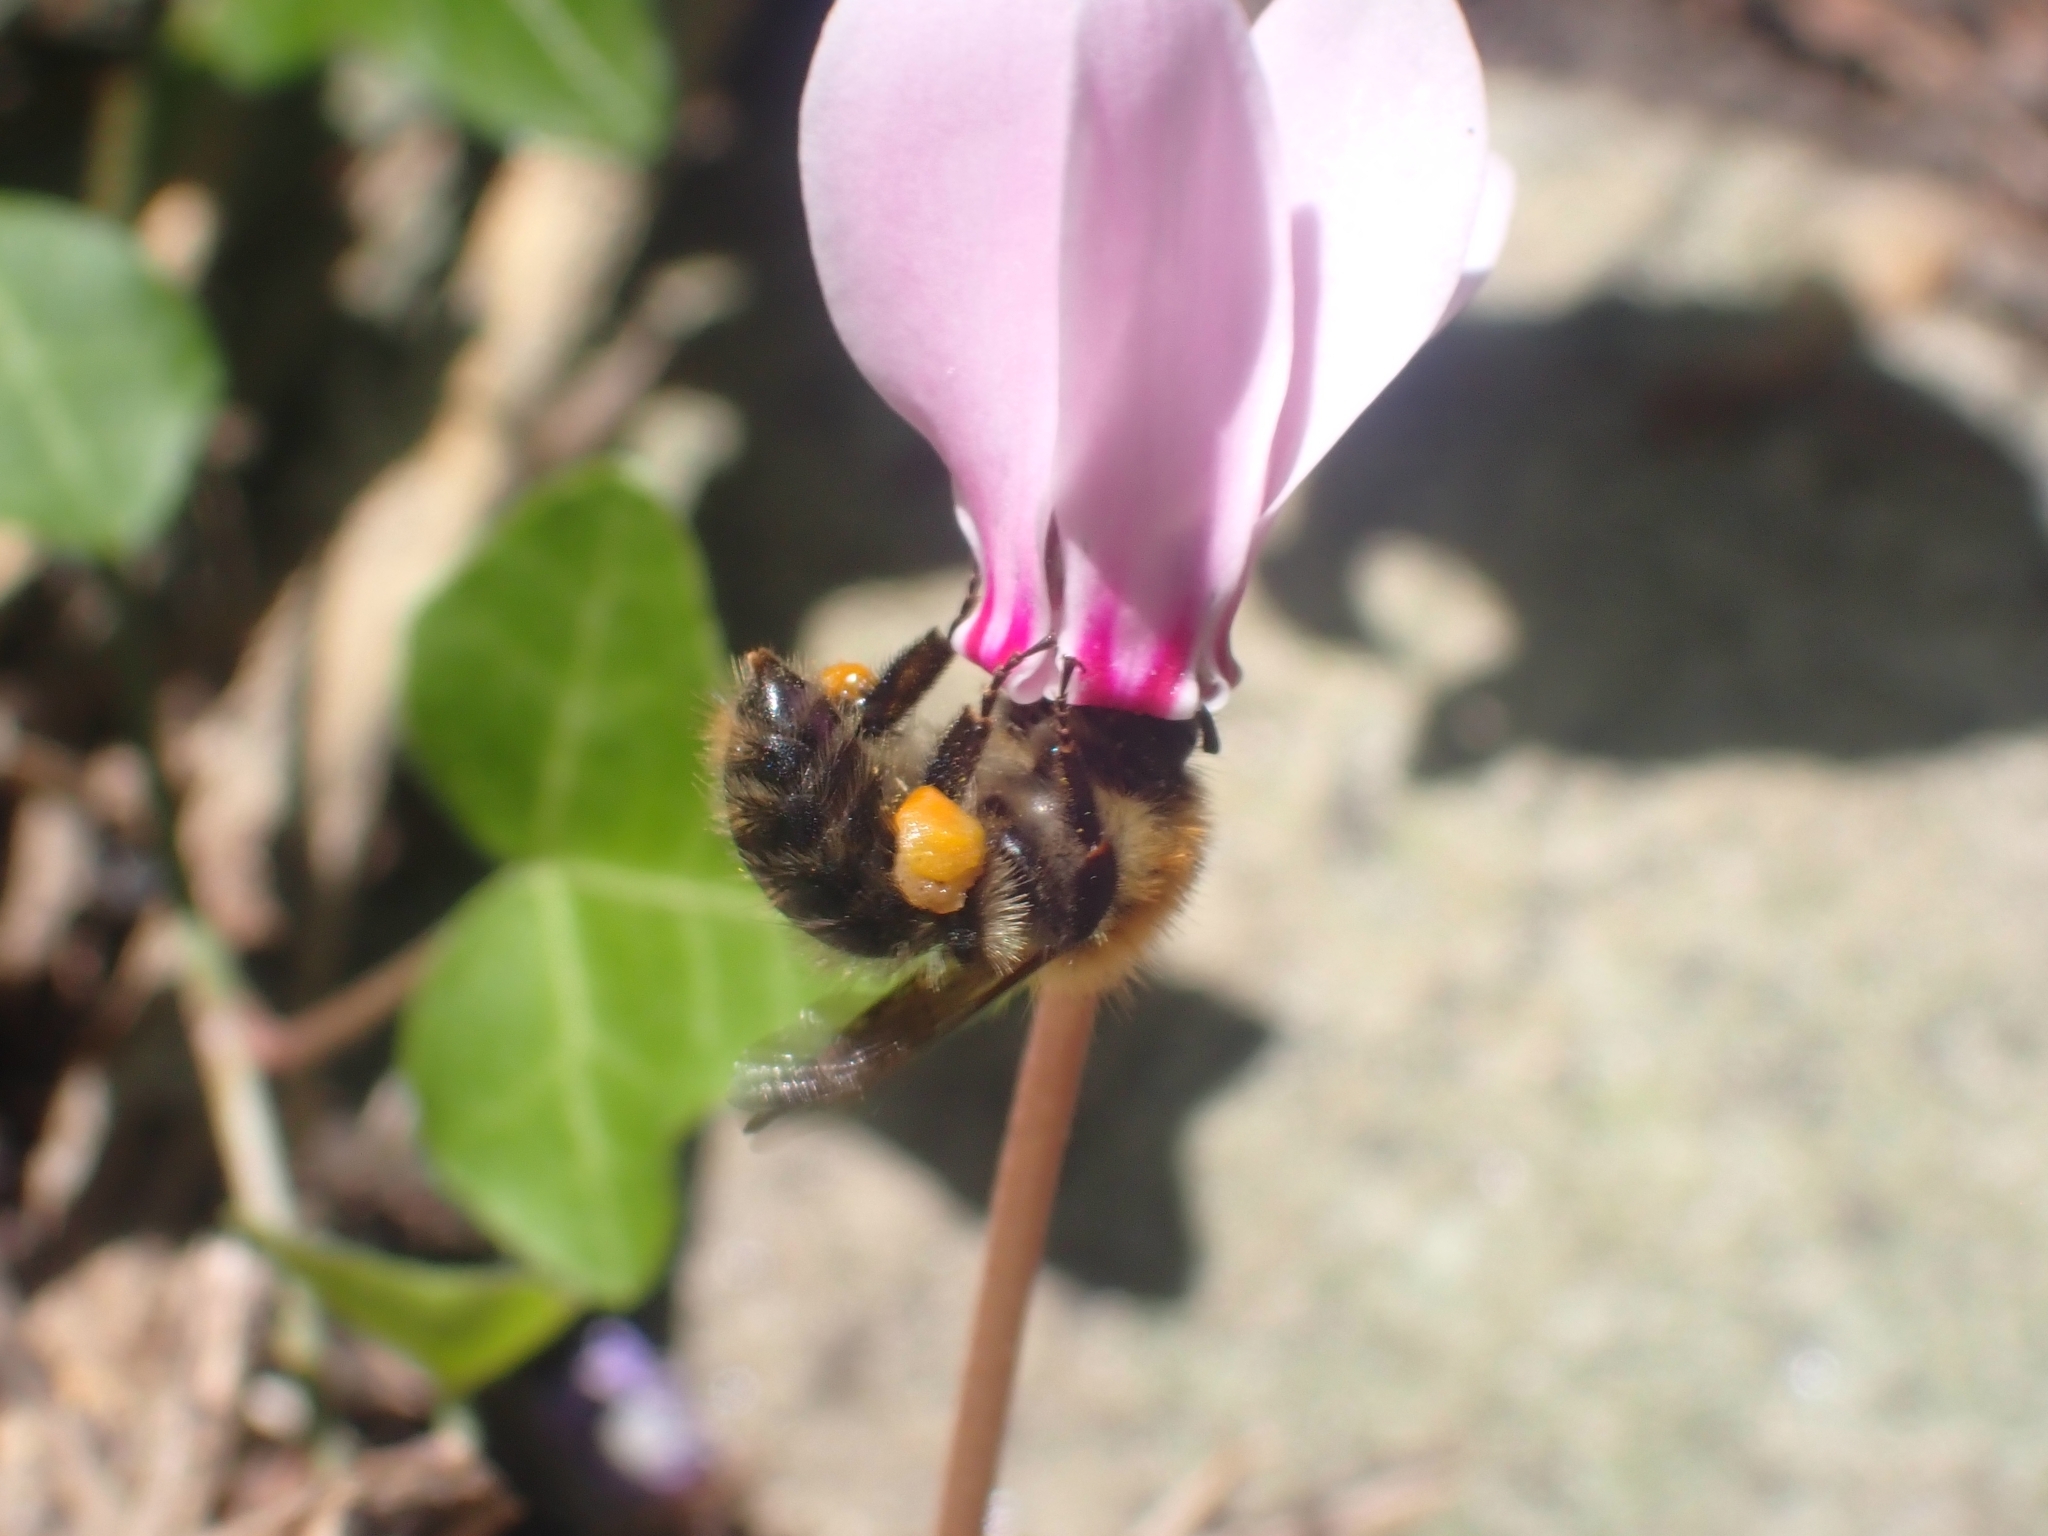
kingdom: Animalia
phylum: Arthropoda
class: Insecta
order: Hymenoptera
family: Apidae
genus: Bombus
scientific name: Bombus pascuorum
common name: Common carder bee
